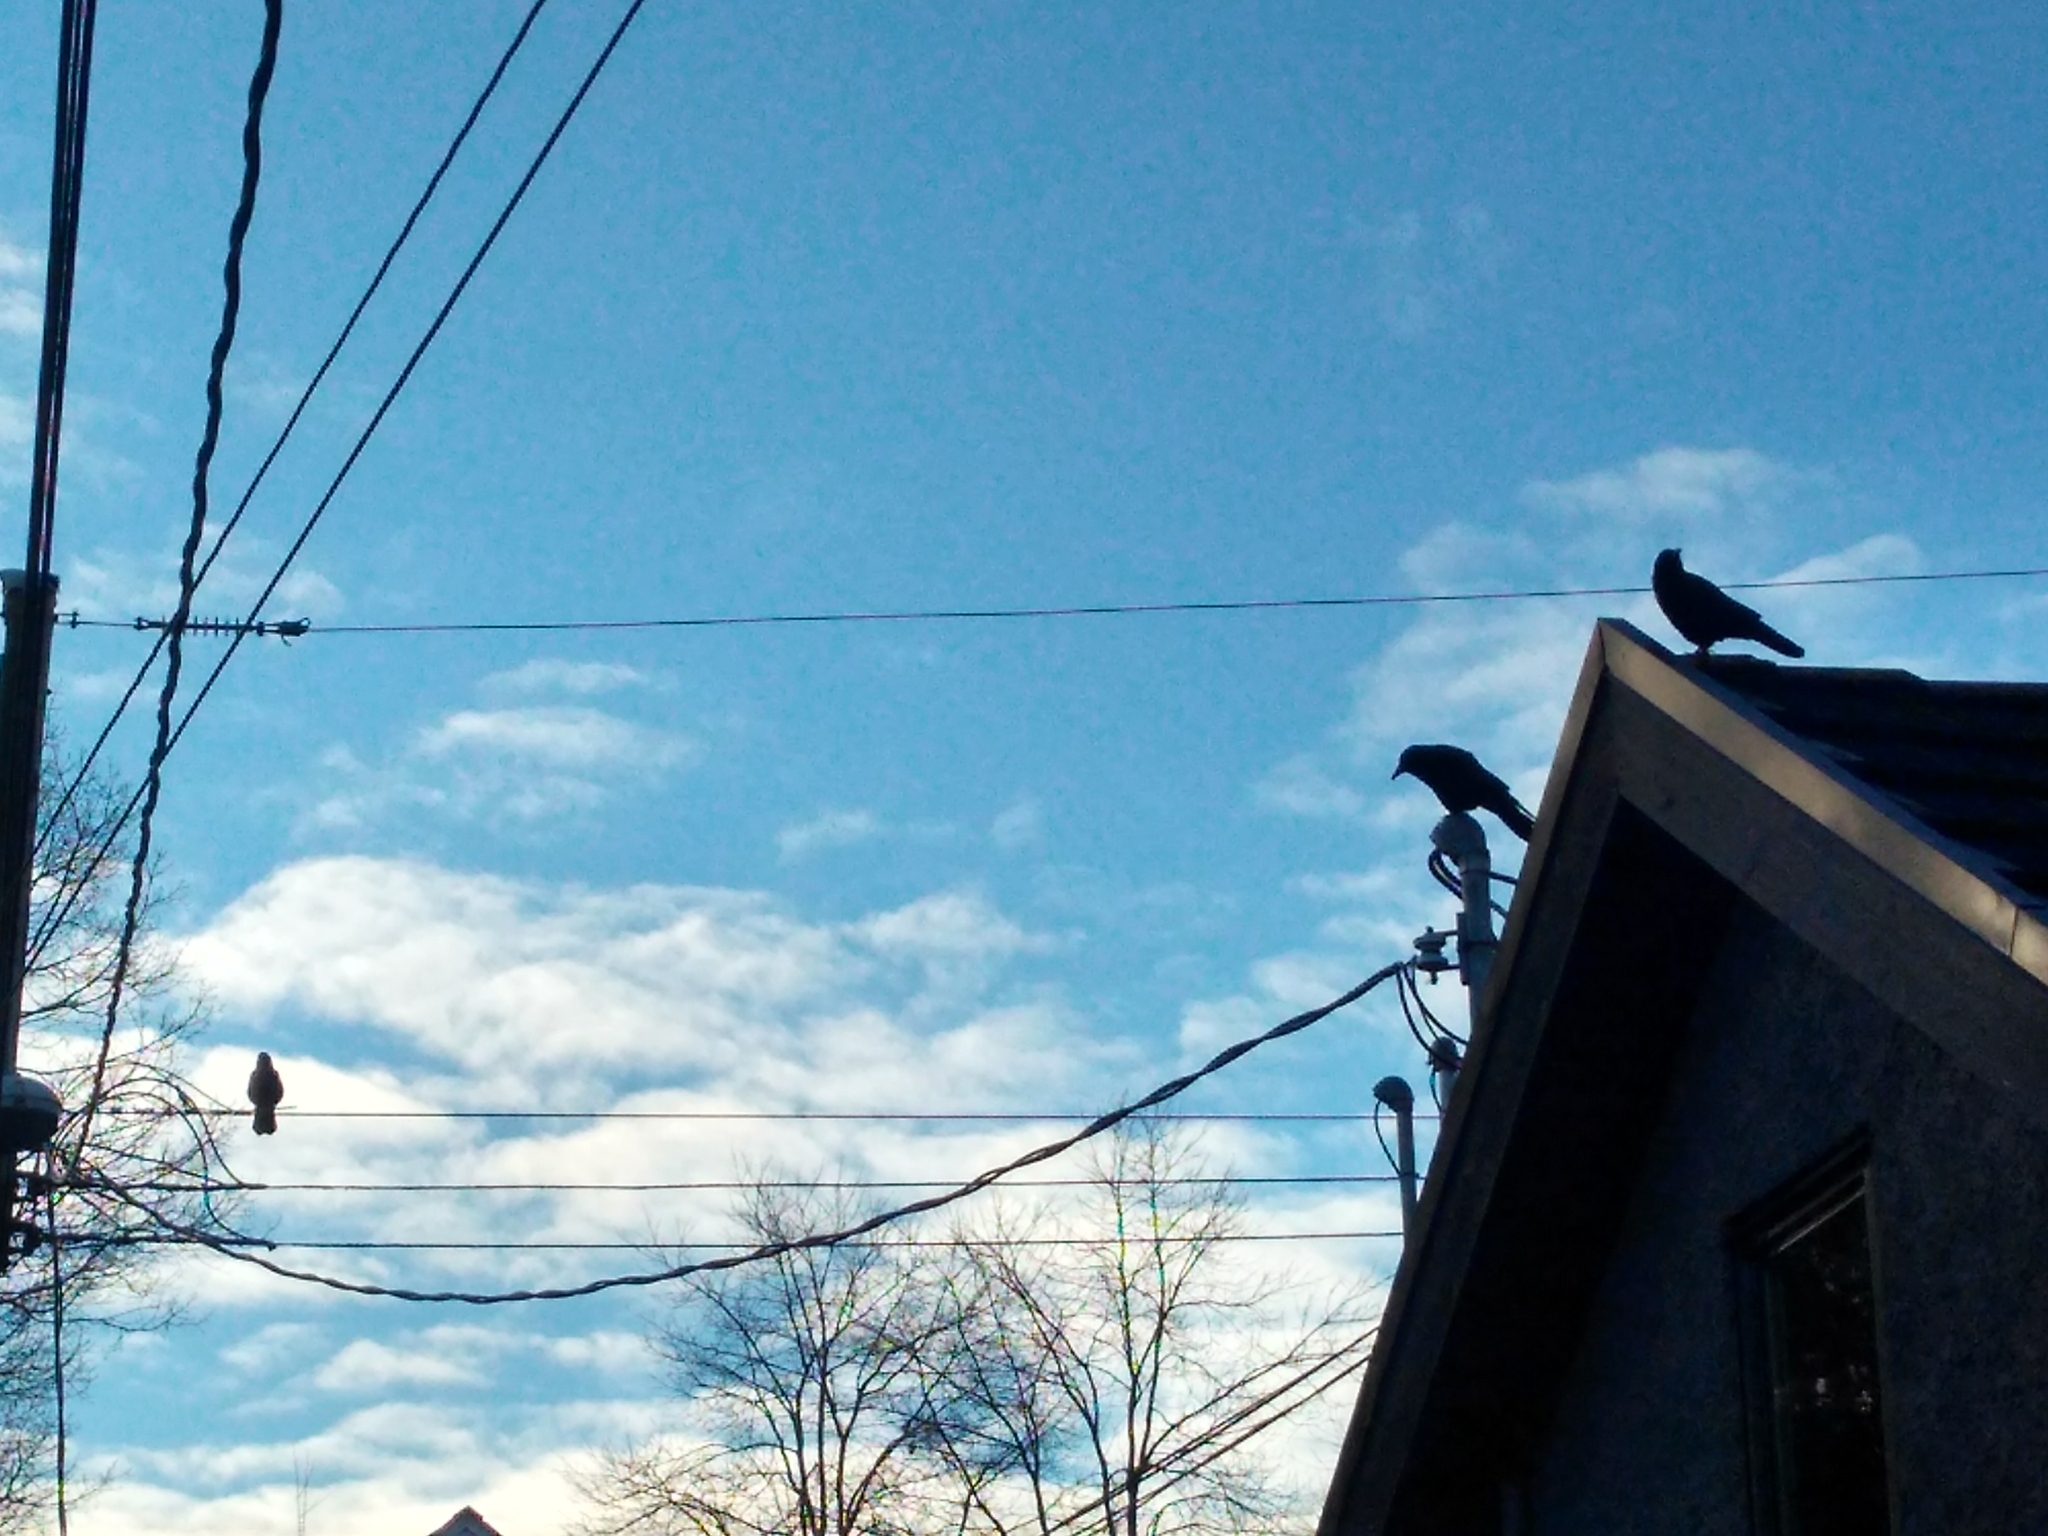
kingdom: Animalia
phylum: Chordata
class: Aves
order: Passeriformes
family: Corvidae
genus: Corvus
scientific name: Corvus brachyrhynchos
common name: American crow
